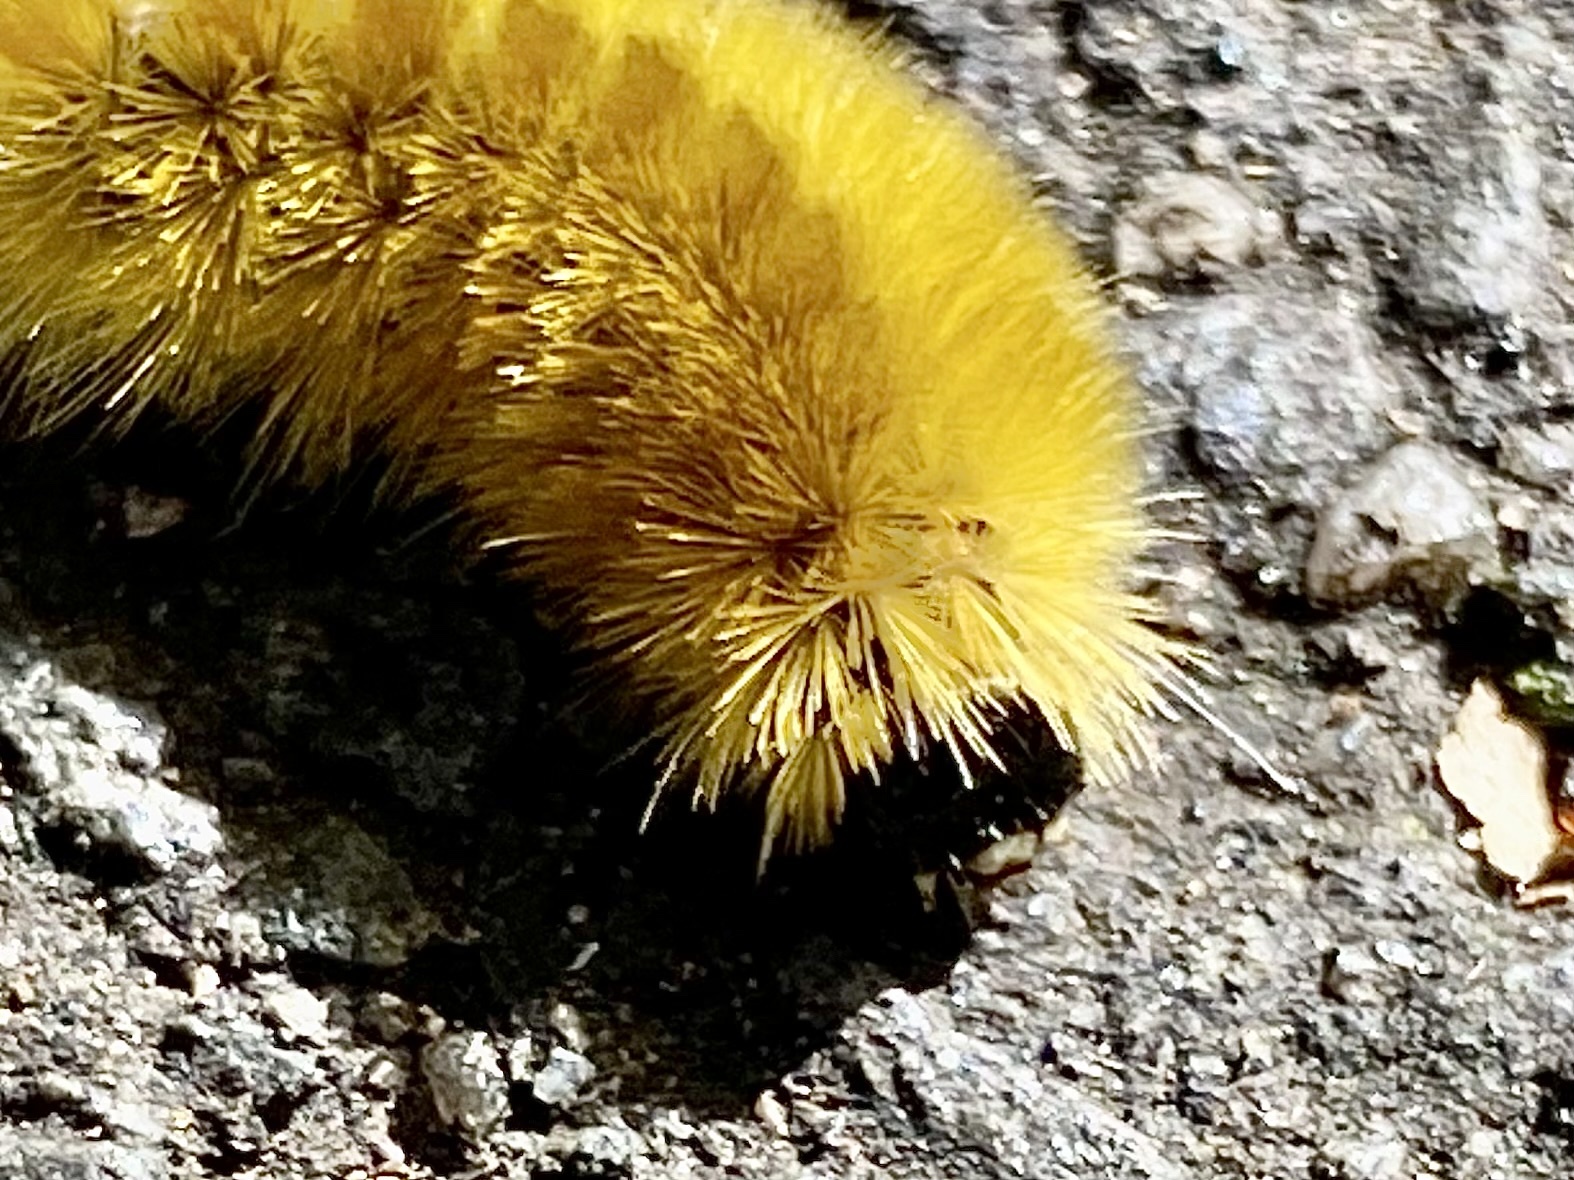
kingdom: Animalia
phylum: Arthropoda
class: Insecta
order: Lepidoptera
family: Erebidae
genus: Halysidota
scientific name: Halysidota tessellaris
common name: Banded tussock moth
